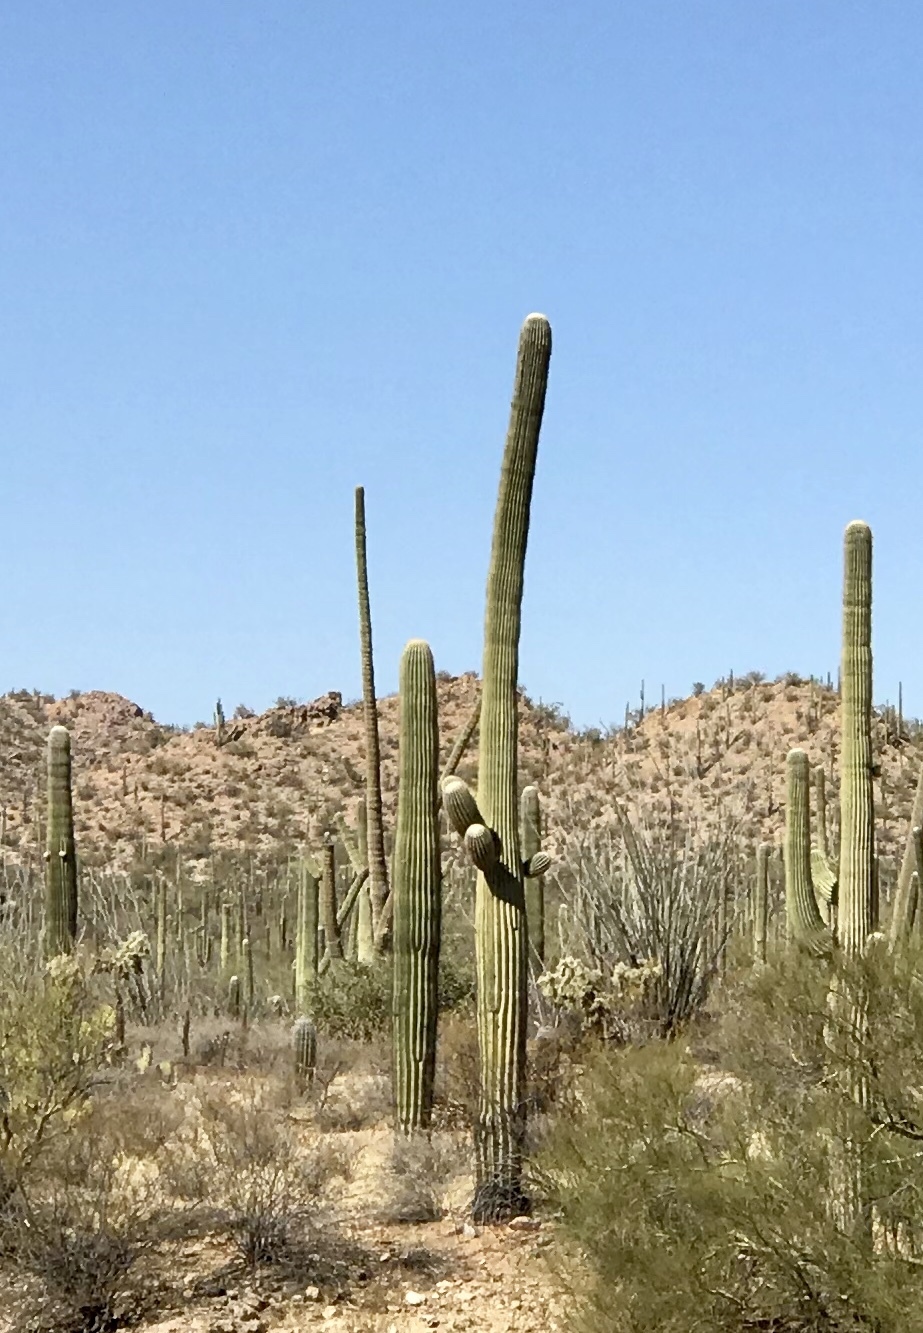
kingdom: Plantae
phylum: Tracheophyta
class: Magnoliopsida
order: Caryophyllales
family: Cactaceae
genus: Carnegiea
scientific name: Carnegiea gigantea
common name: Saguaro
